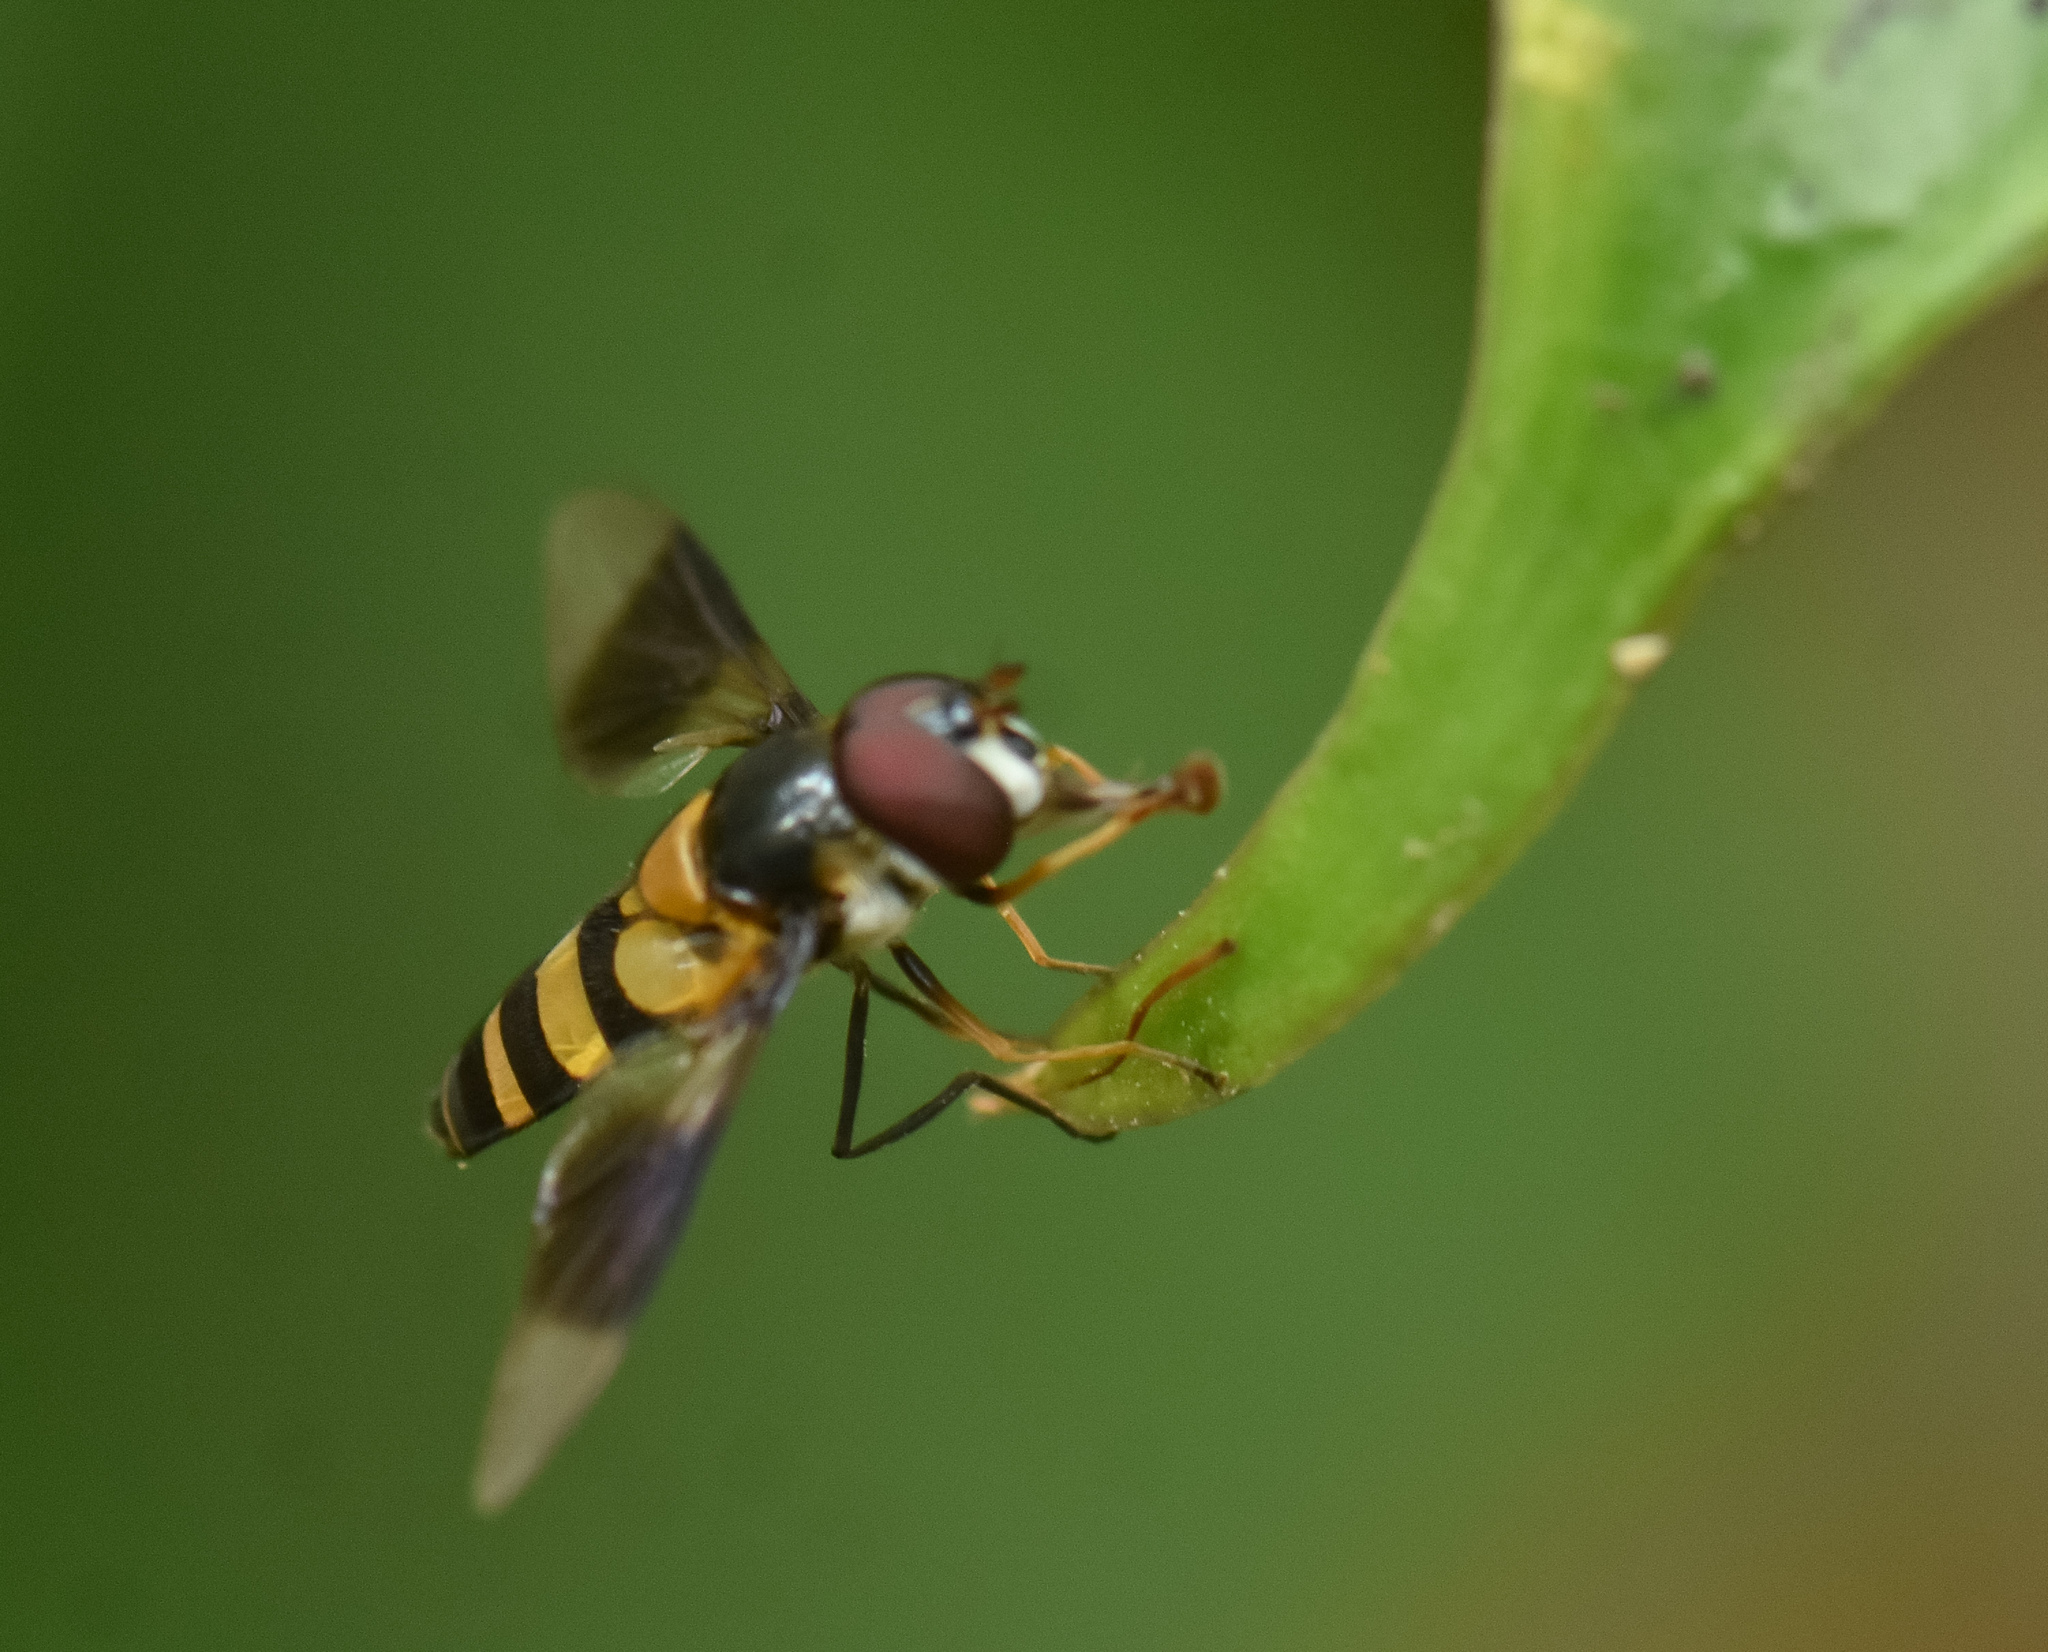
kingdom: Animalia
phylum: Arthropoda
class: Insecta
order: Diptera
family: Syrphidae
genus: Dideopsis
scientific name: Dideopsis aegrota
